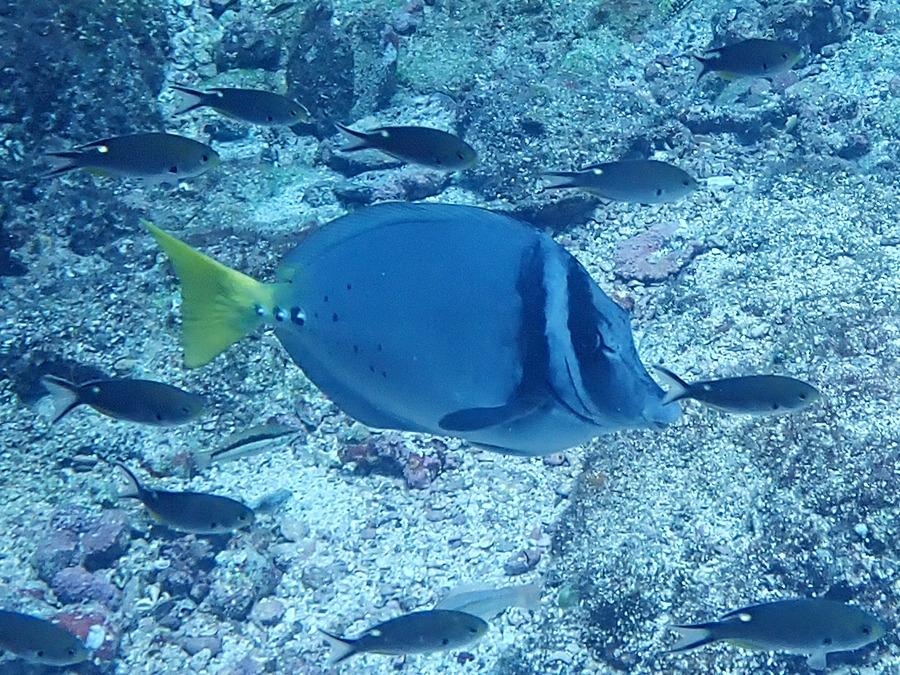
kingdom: Animalia
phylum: Chordata
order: Perciformes
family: Acanthuridae
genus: Prionurus
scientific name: Prionurus laticlavius
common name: Razor surgeonfish
